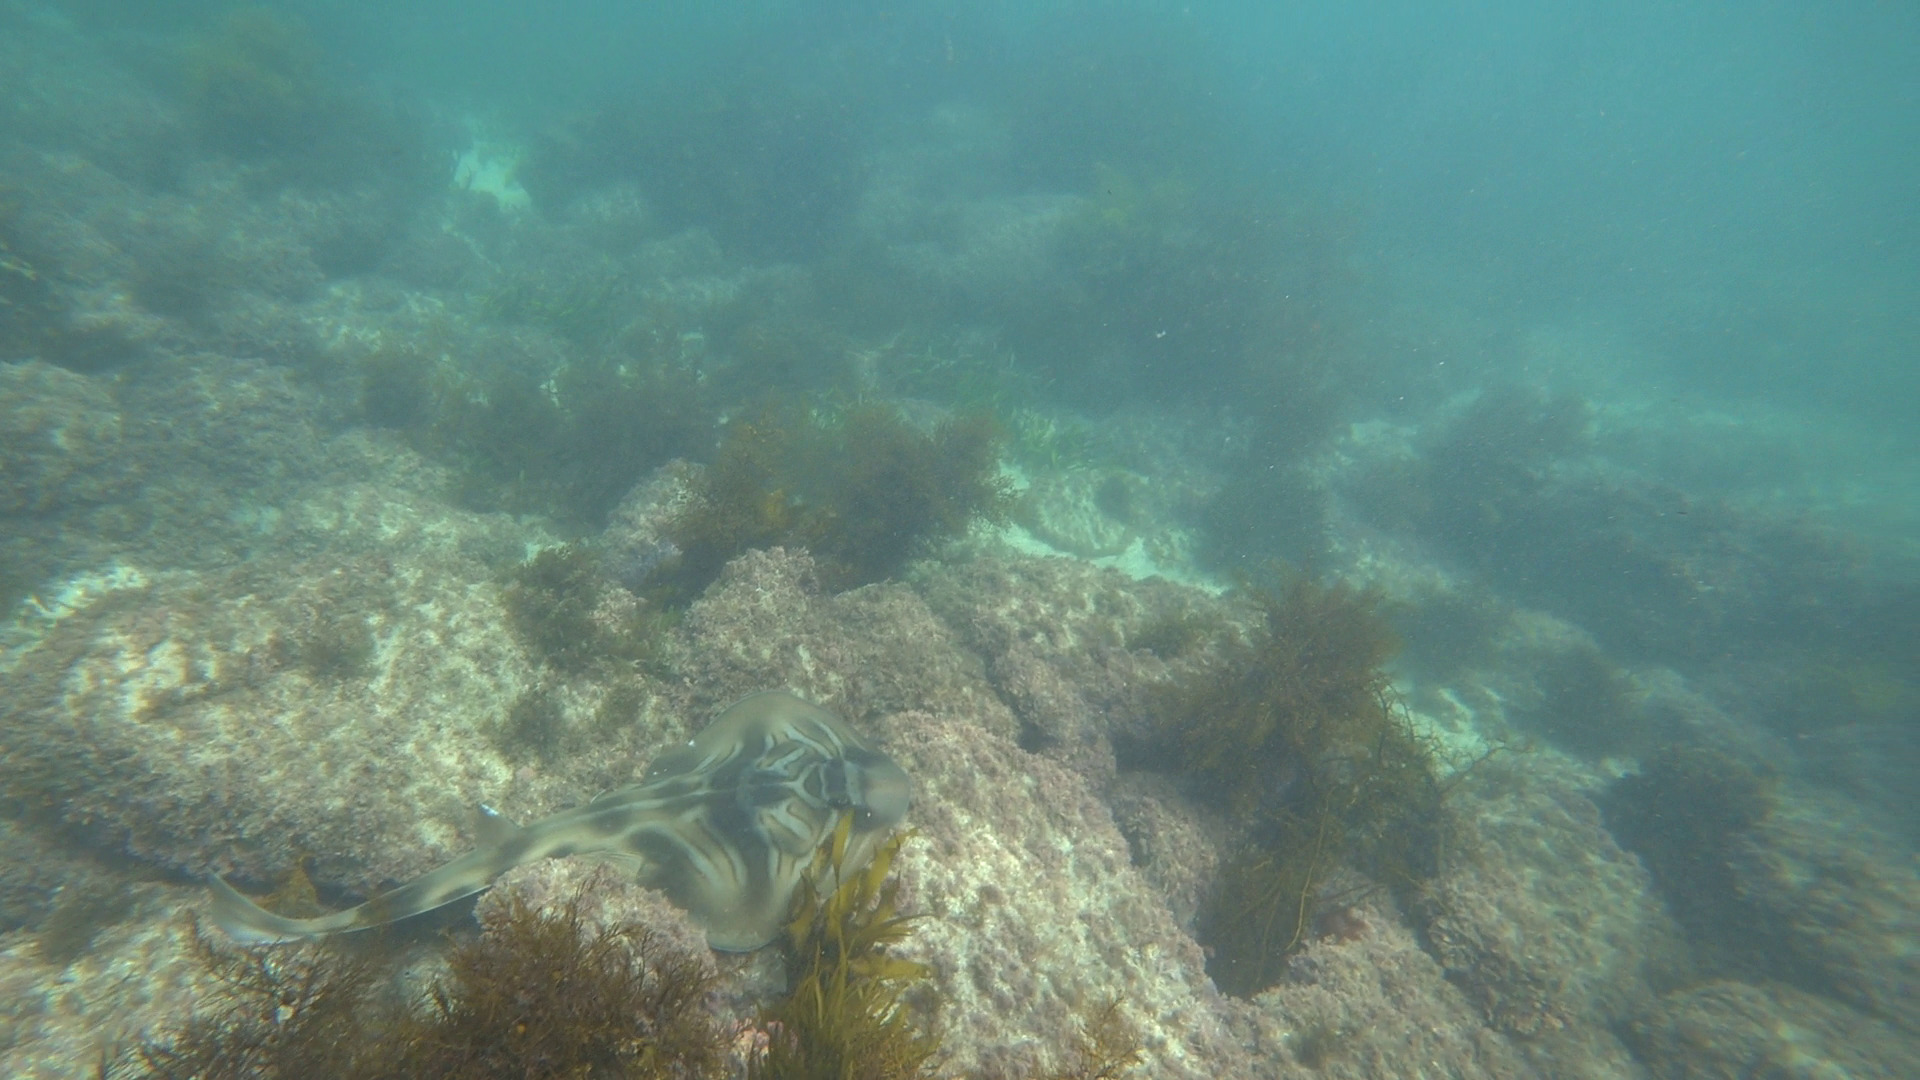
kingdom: Animalia
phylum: Chordata
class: Elasmobranchii
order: Rhinopristiformes
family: Rhinobatidae
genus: Trygonorrhina
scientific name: Trygonorrhina fasciata
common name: Southern fiddler
